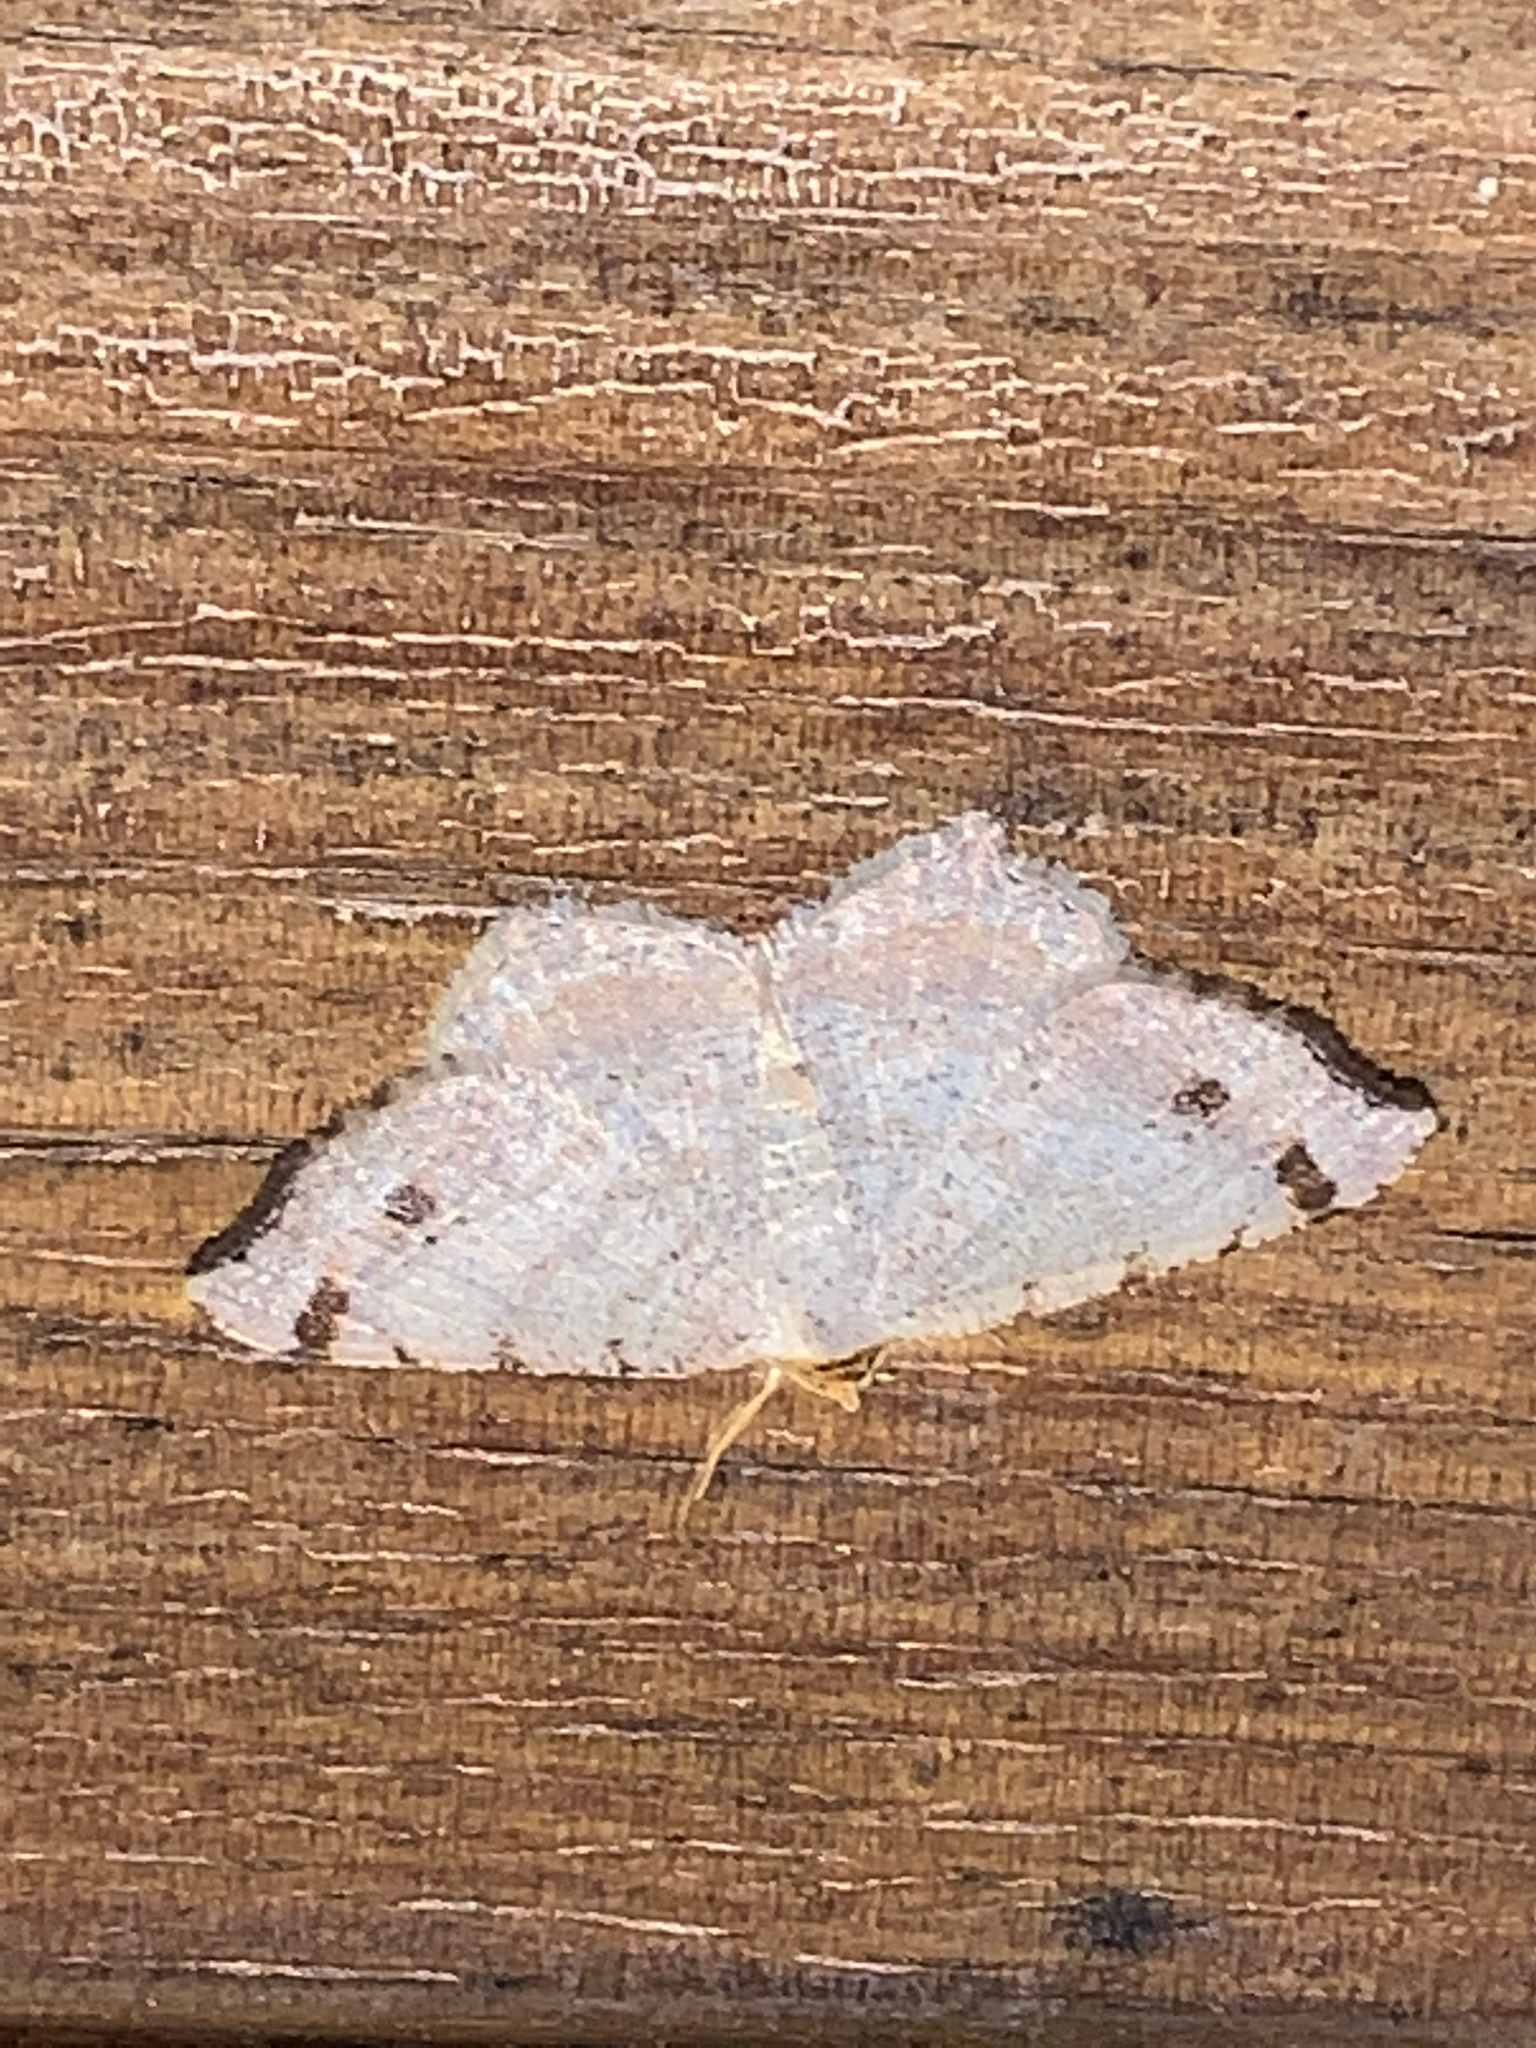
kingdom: Animalia
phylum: Arthropoda
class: Insecta
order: Lepidoptera
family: Geometridae
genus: Macaria
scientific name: Macaria bisignata
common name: Red-headed inchworm
